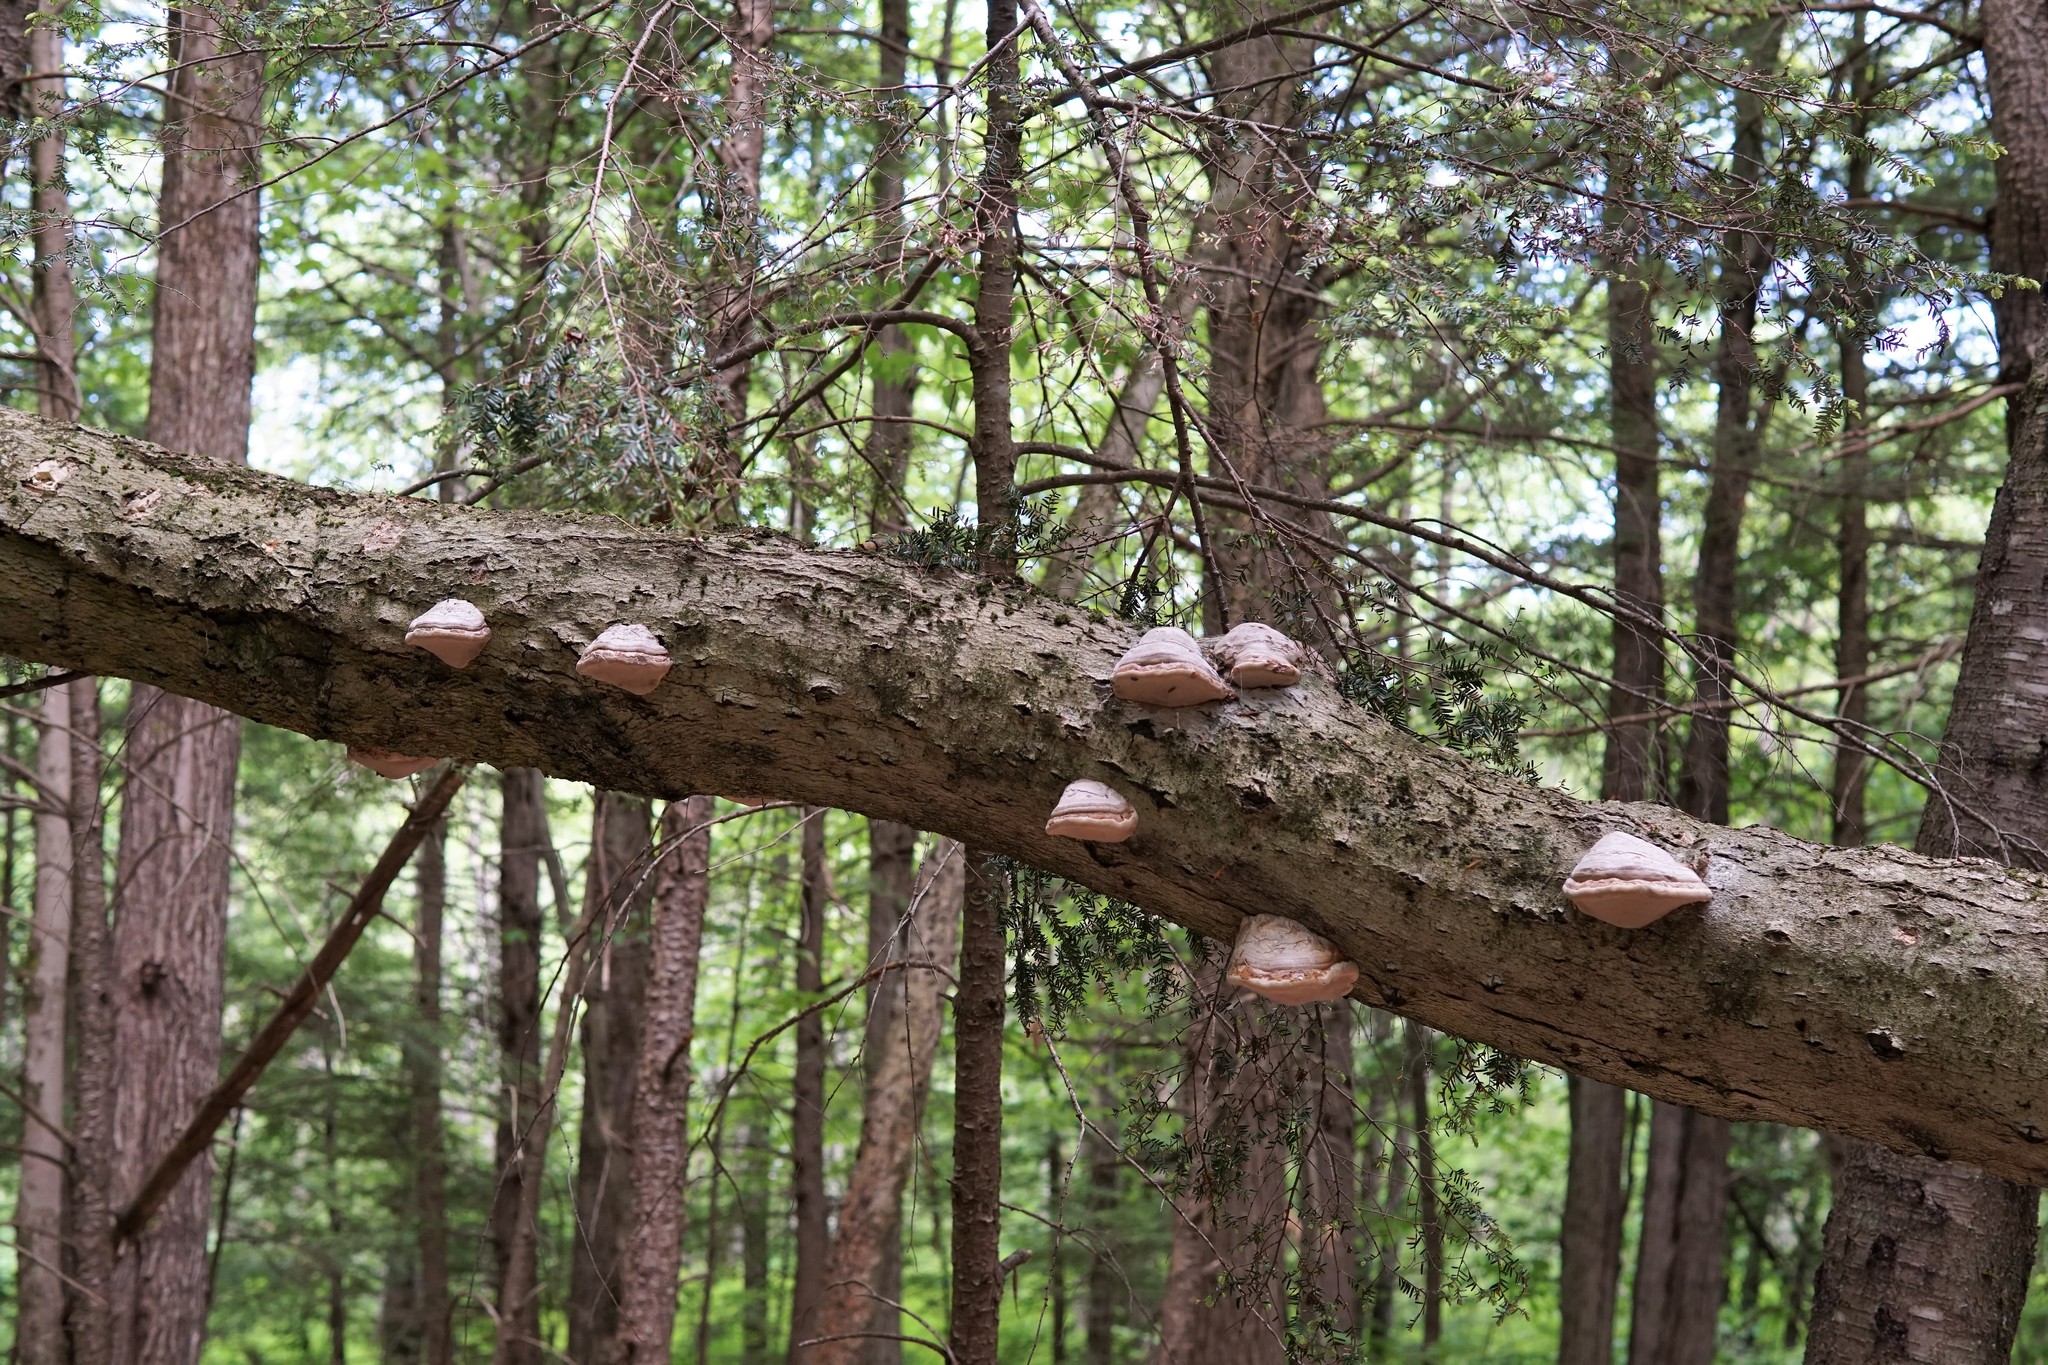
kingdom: Fungi
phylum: Basidiomycota
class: Agaricomycetes
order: Polyporales
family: Polyporaceae
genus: Fomes
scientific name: Fomes fomentarius
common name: Hoof fungus
